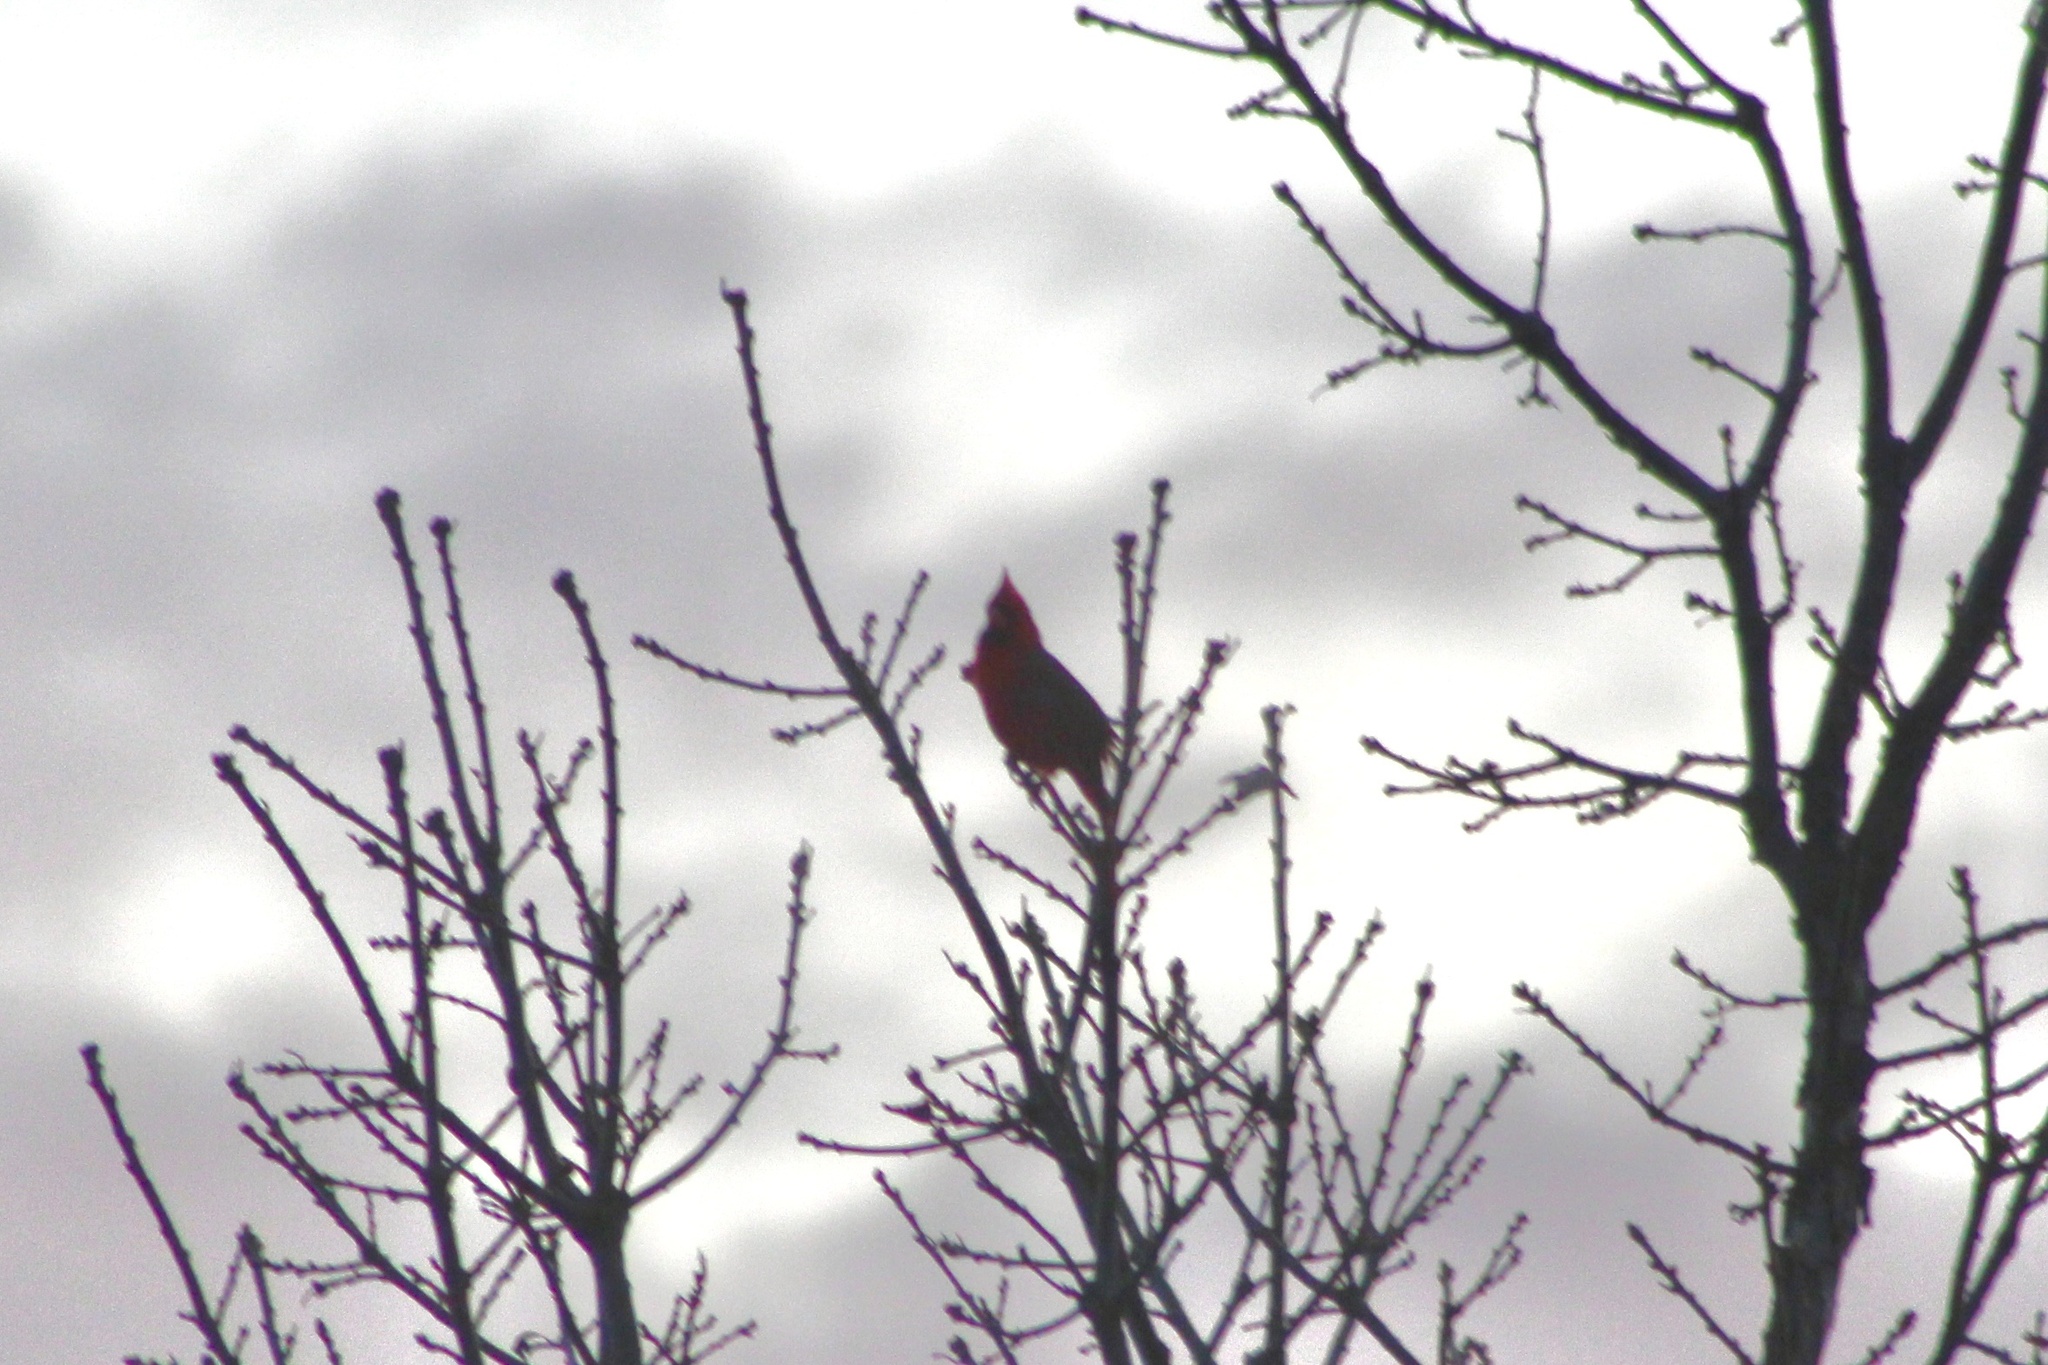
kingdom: Animalia
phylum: Chordata
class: Aves
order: Passeriformes
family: Cardinalidae
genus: Cardinalis
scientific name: Cardinalis cardinalis
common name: Northern cardinal
